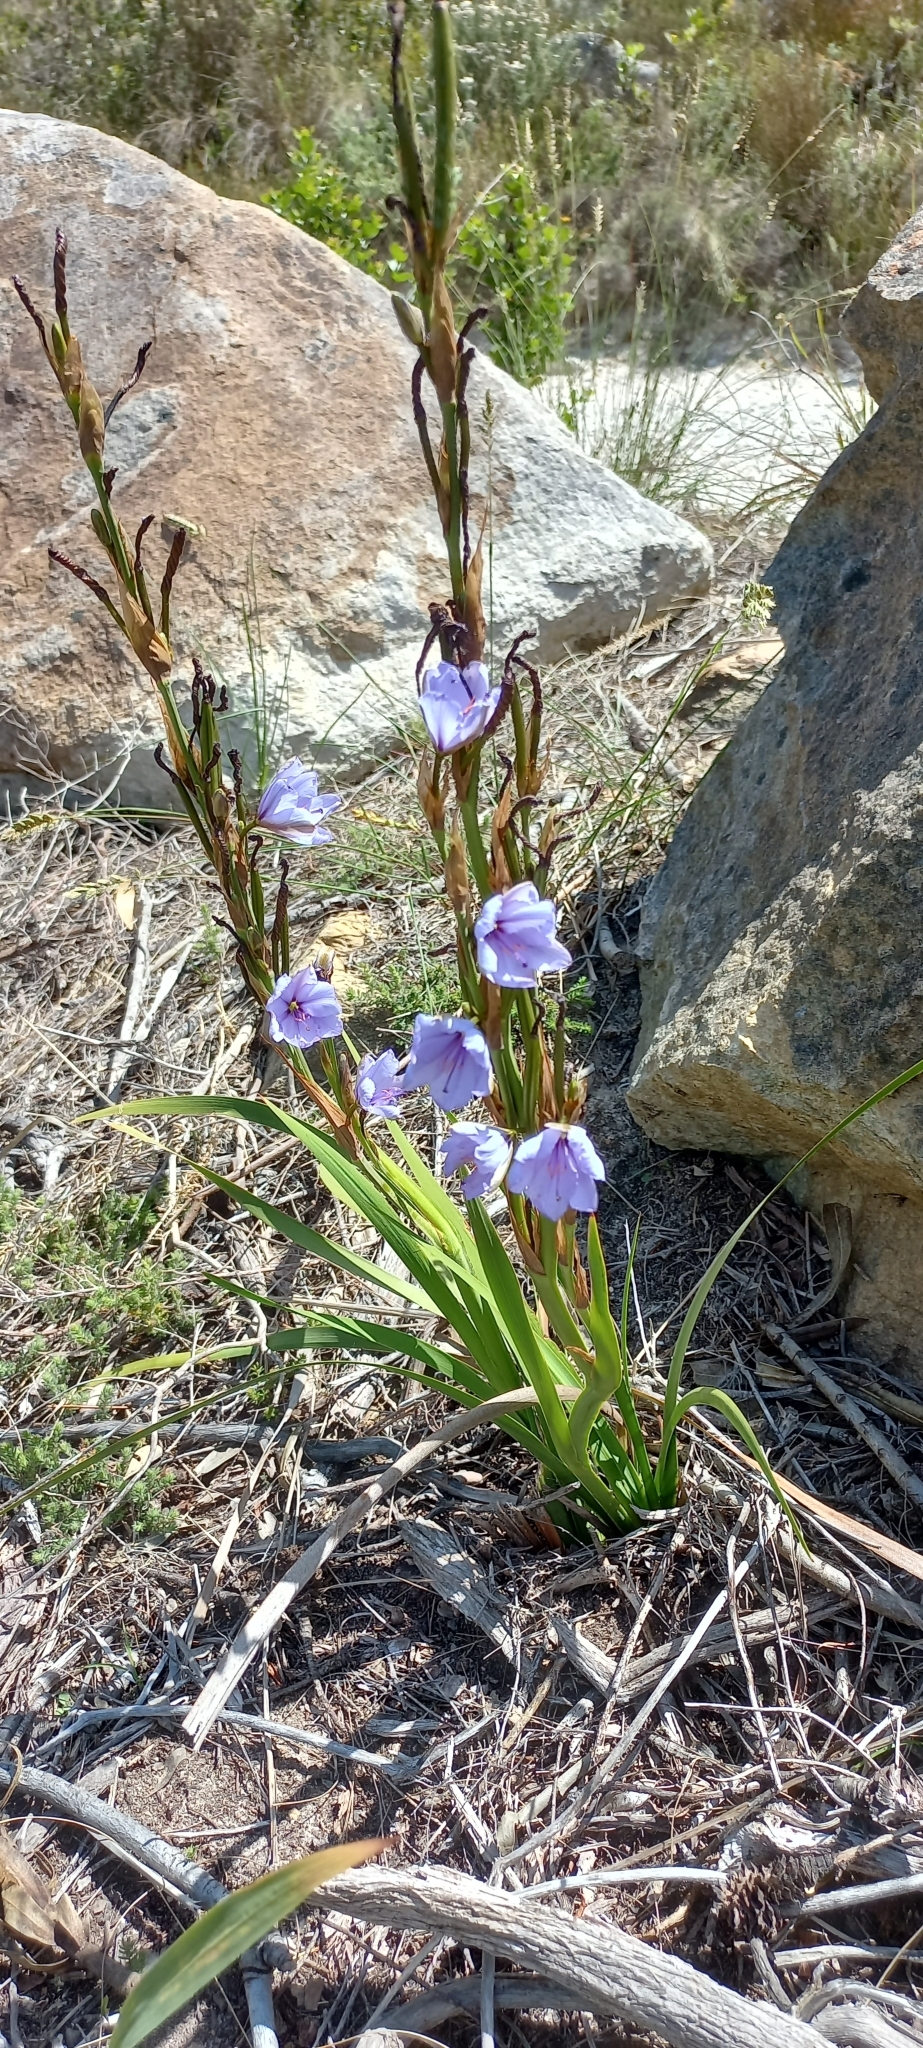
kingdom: Plantae
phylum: Tracheophyta
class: Liliopsida
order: Asparagales
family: Iridaceae
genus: Aristea
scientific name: Aristea spiralis
